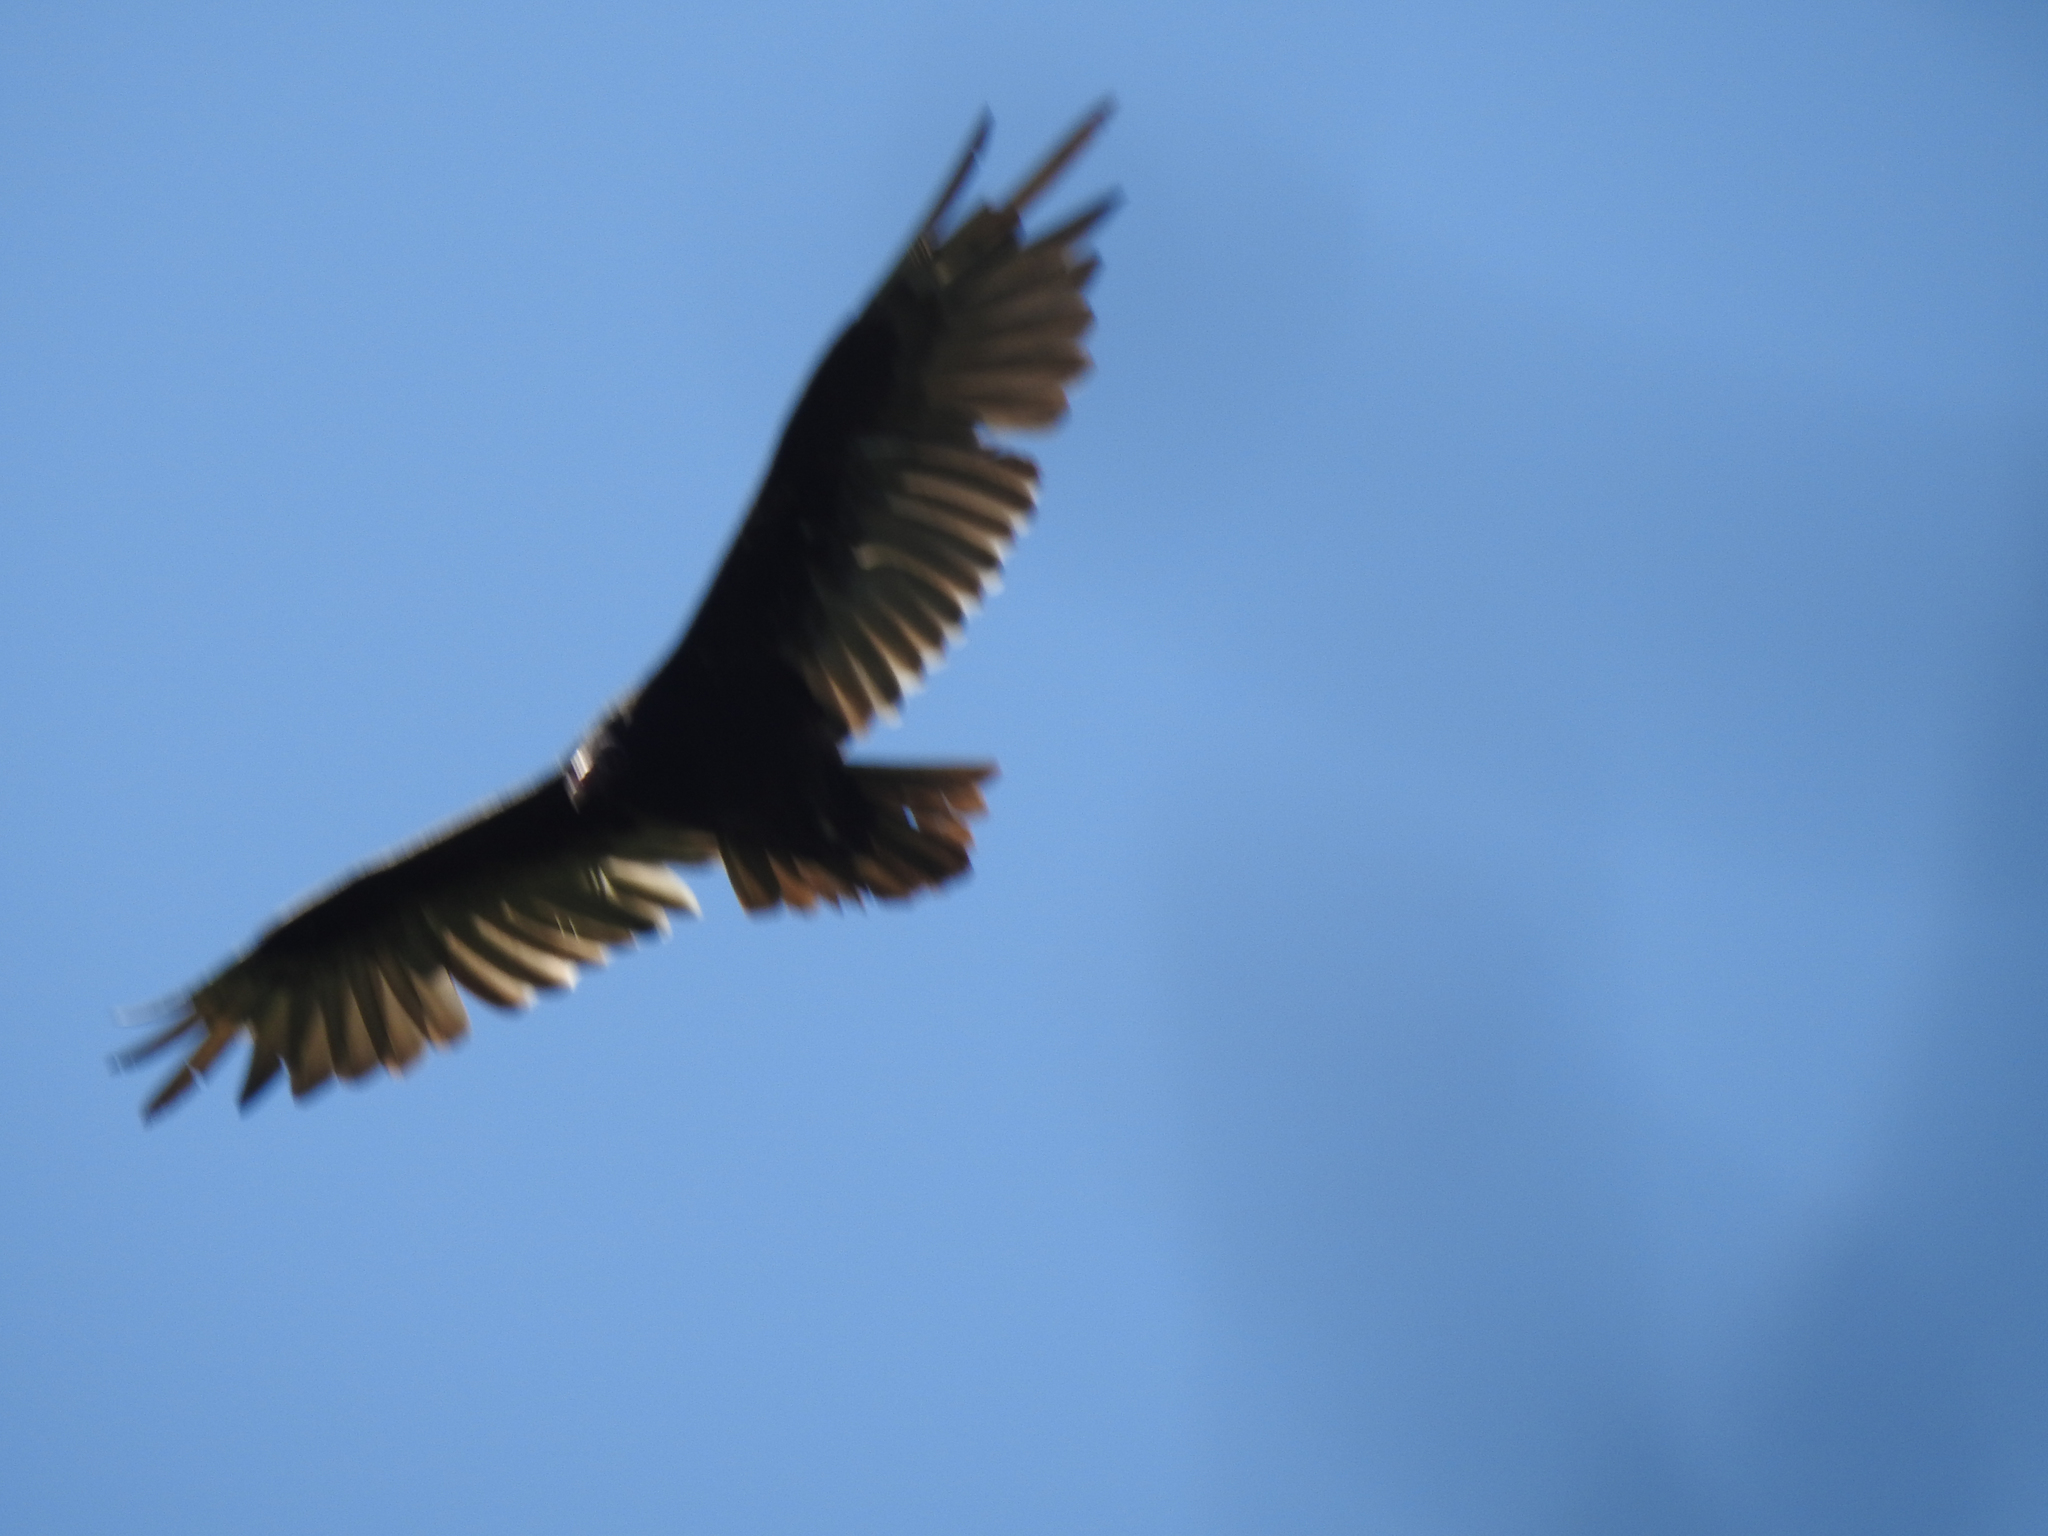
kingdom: Animalia
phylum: Chordata
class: Aves
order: Accipitriformes
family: Cathartidae
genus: Cathartes
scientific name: Cathartes aura
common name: Turkey vulture
